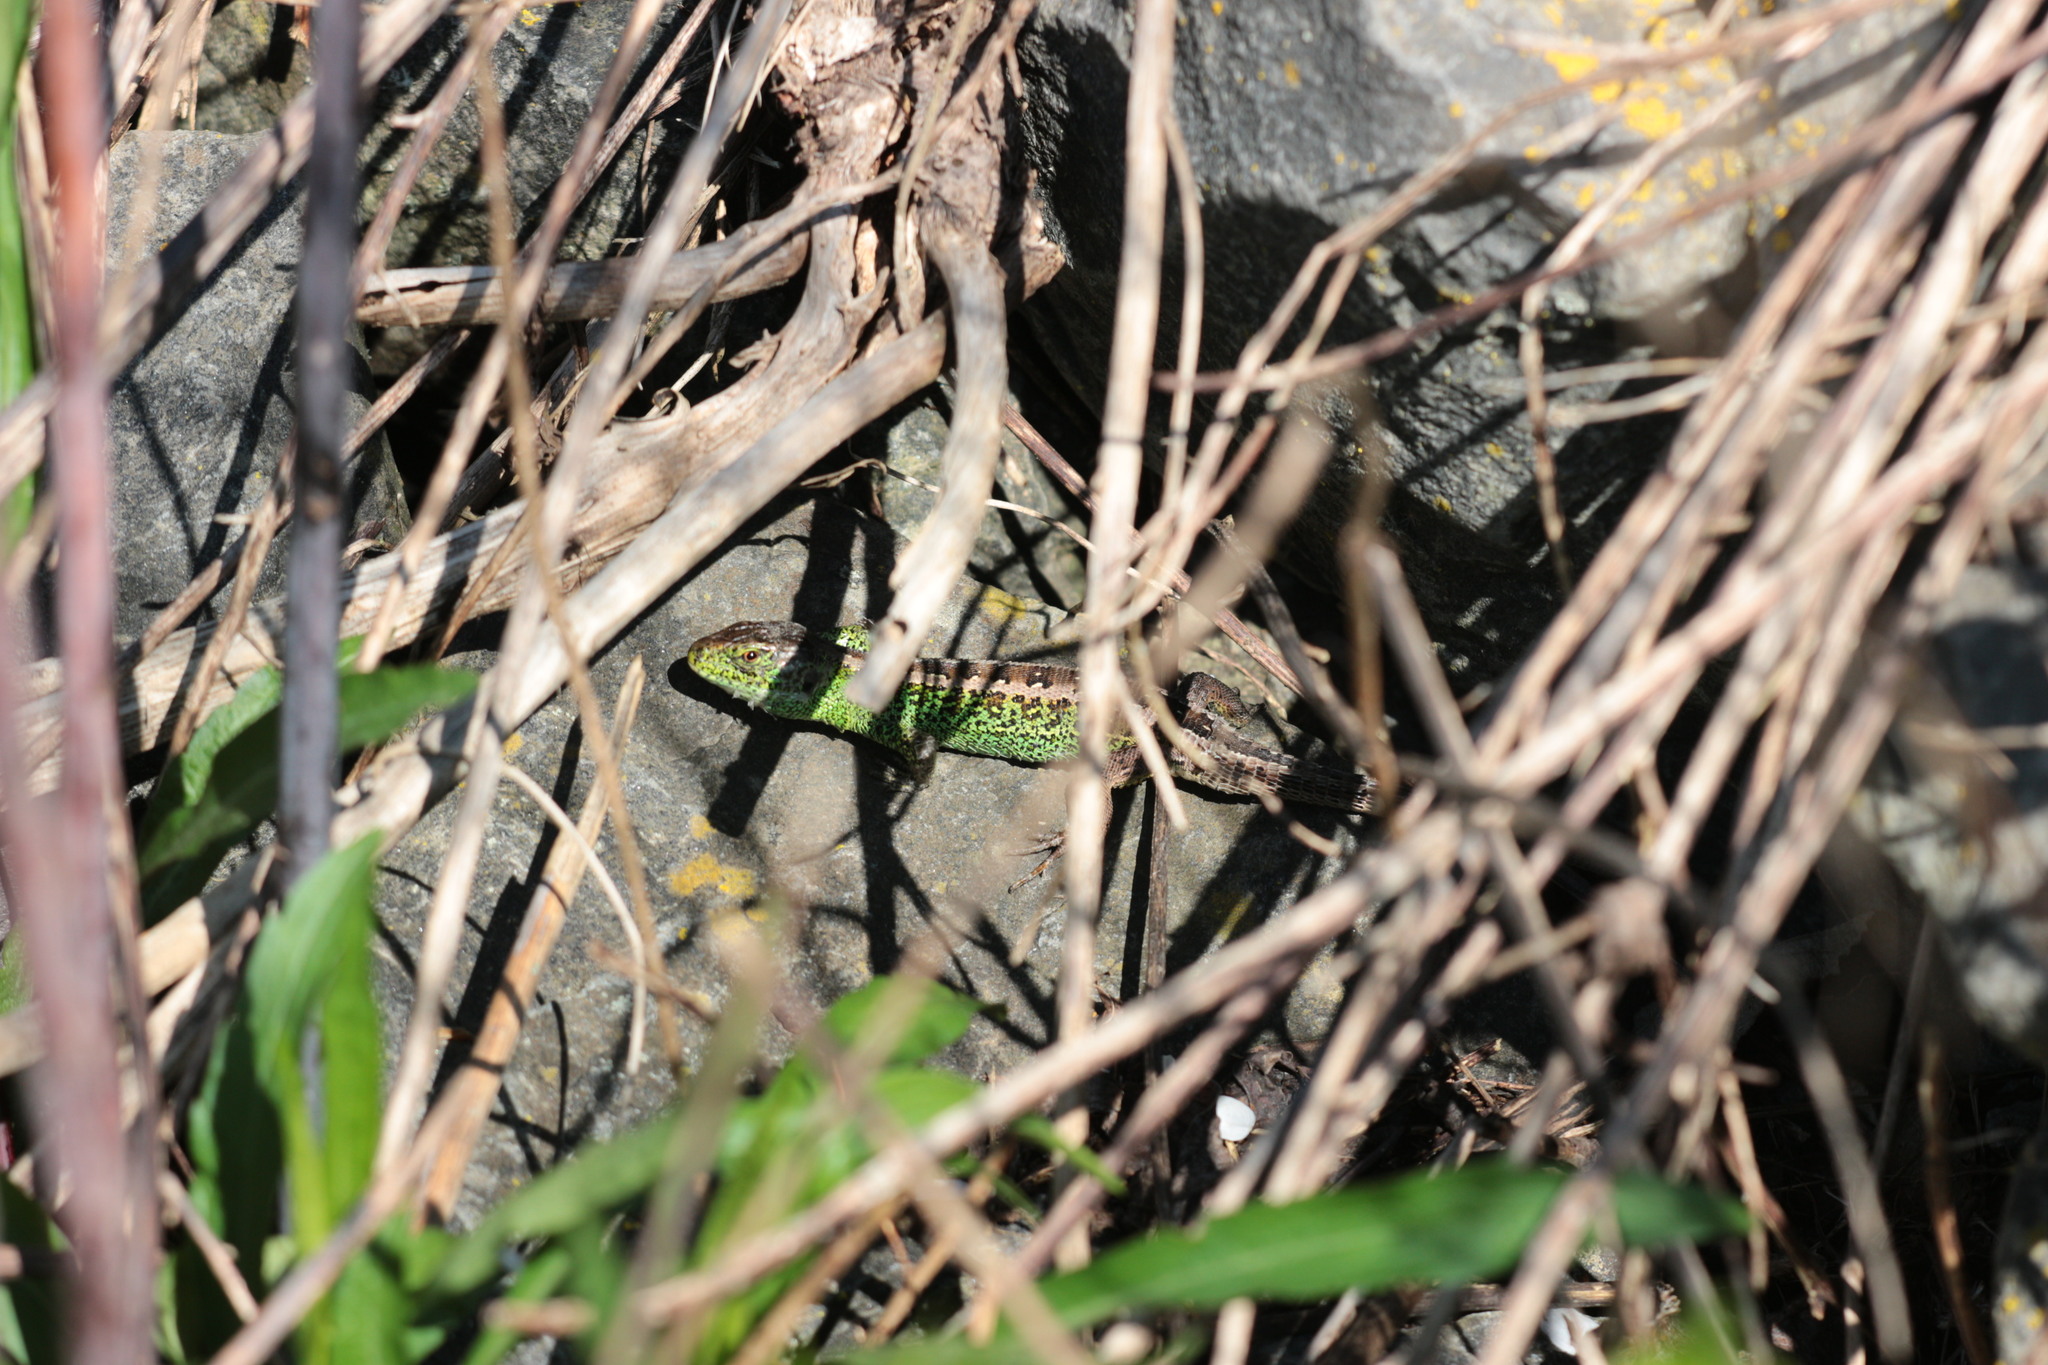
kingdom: Animalia
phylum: Chordata
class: Squamata
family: Lacertidae
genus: Lacerta
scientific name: Lacerta agilis
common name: Sand lizard
